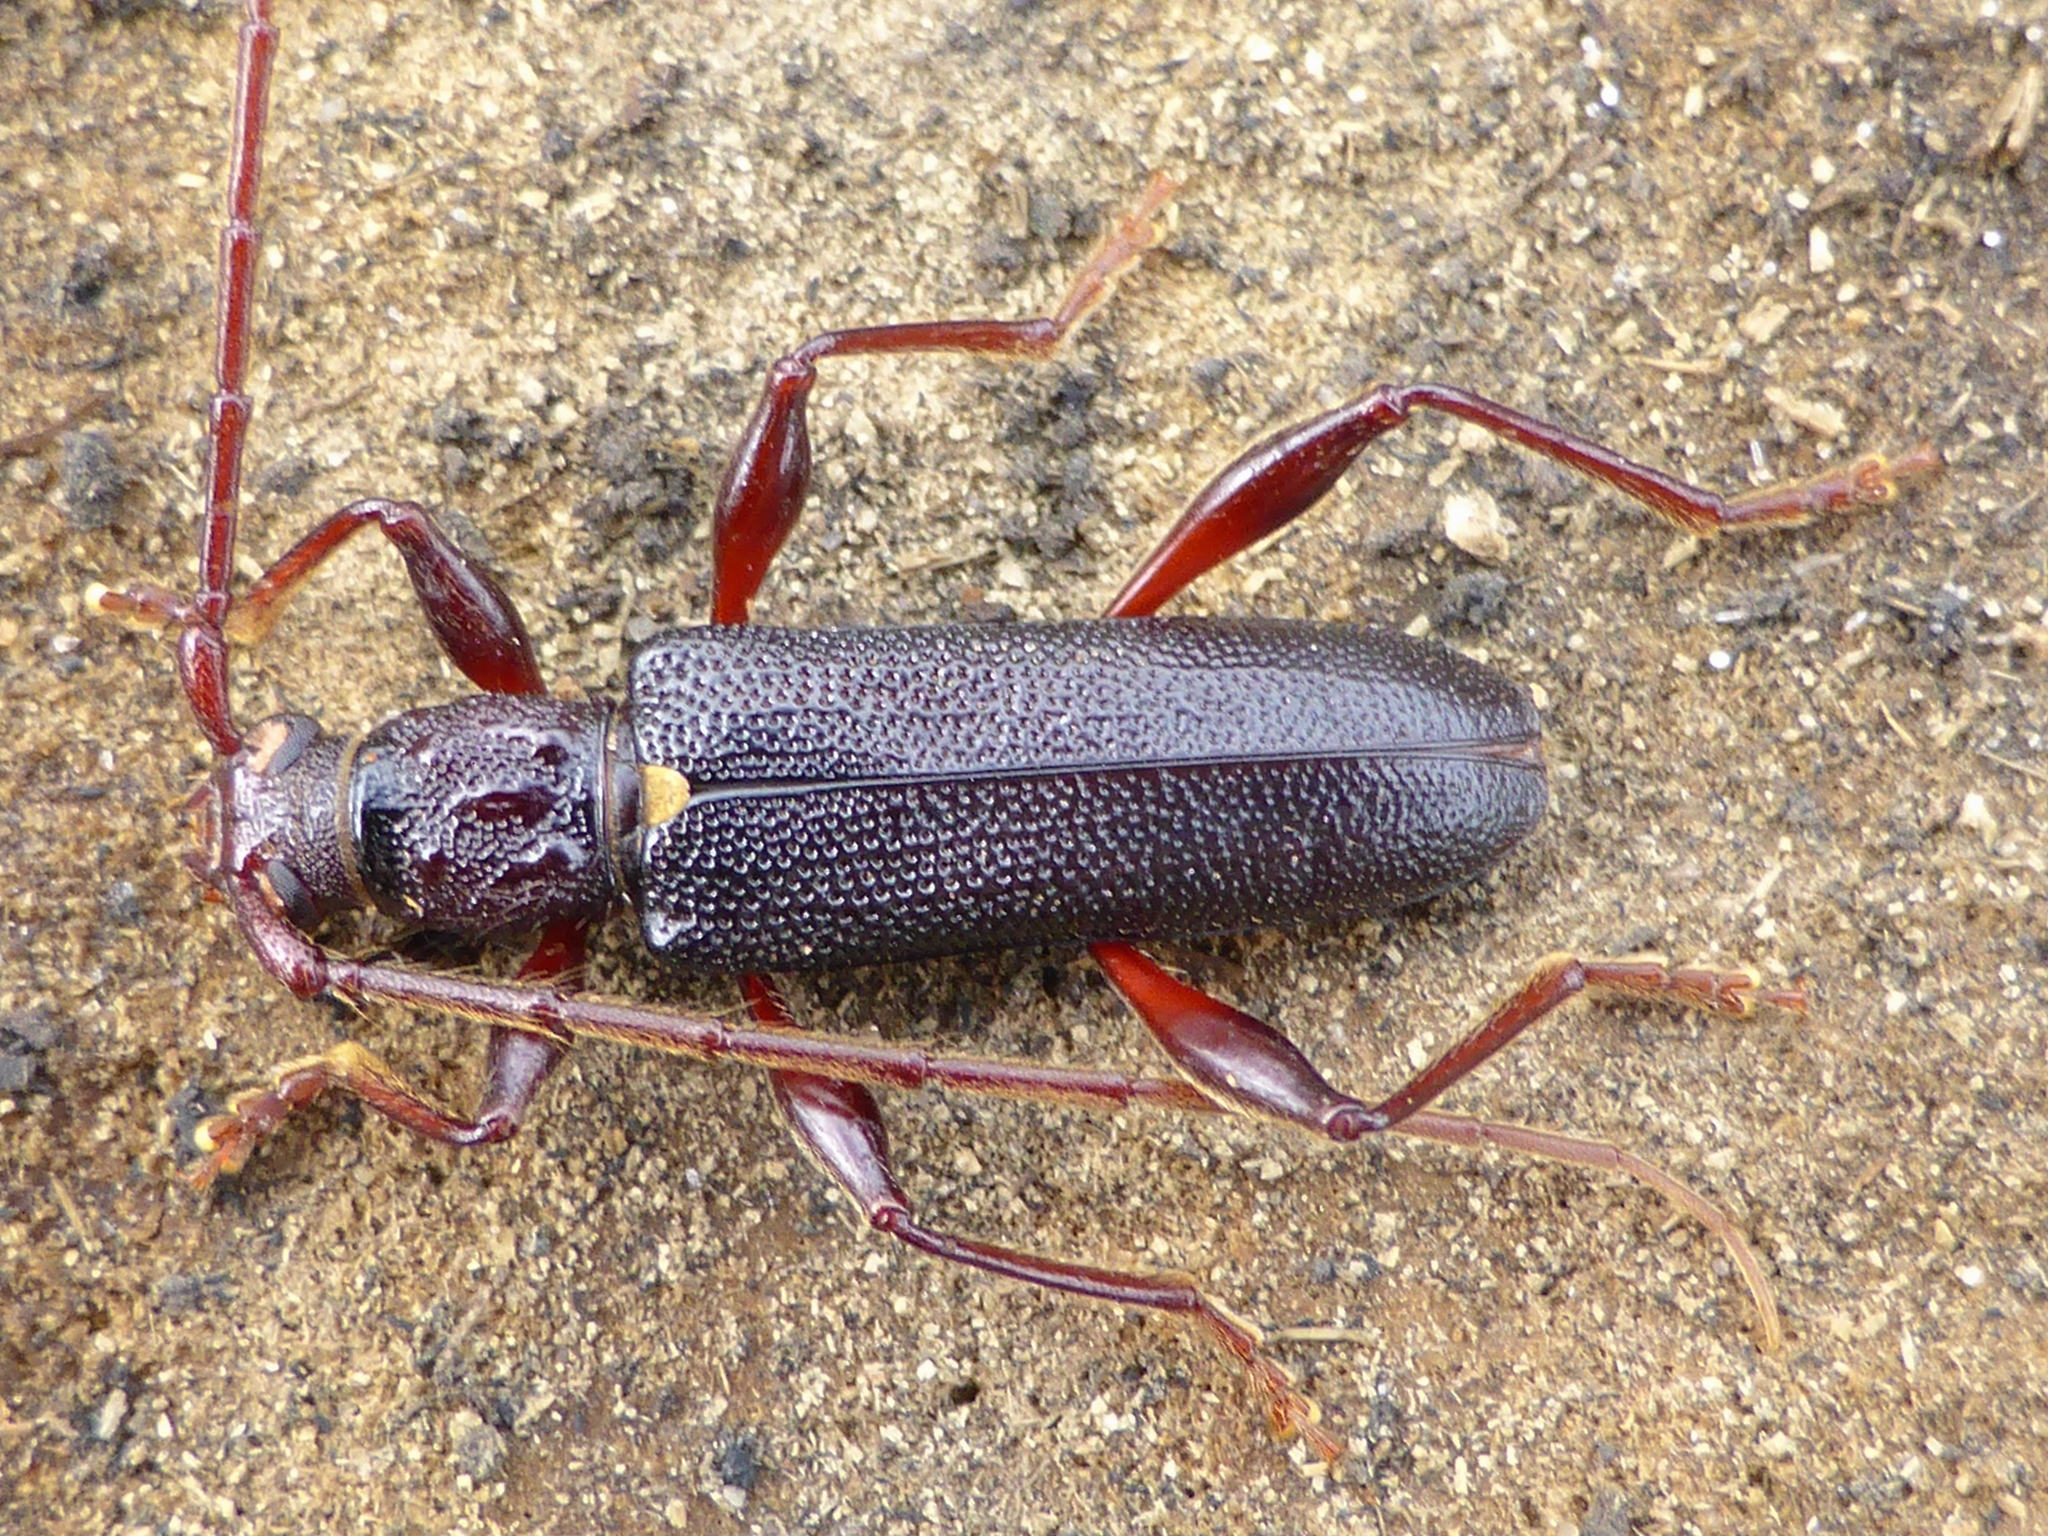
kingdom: Animalia
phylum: Arthropoda
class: Insecta
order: Coleoptera
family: Cerambycidae
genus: Callidiopis
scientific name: Callidiopis scutellaris
